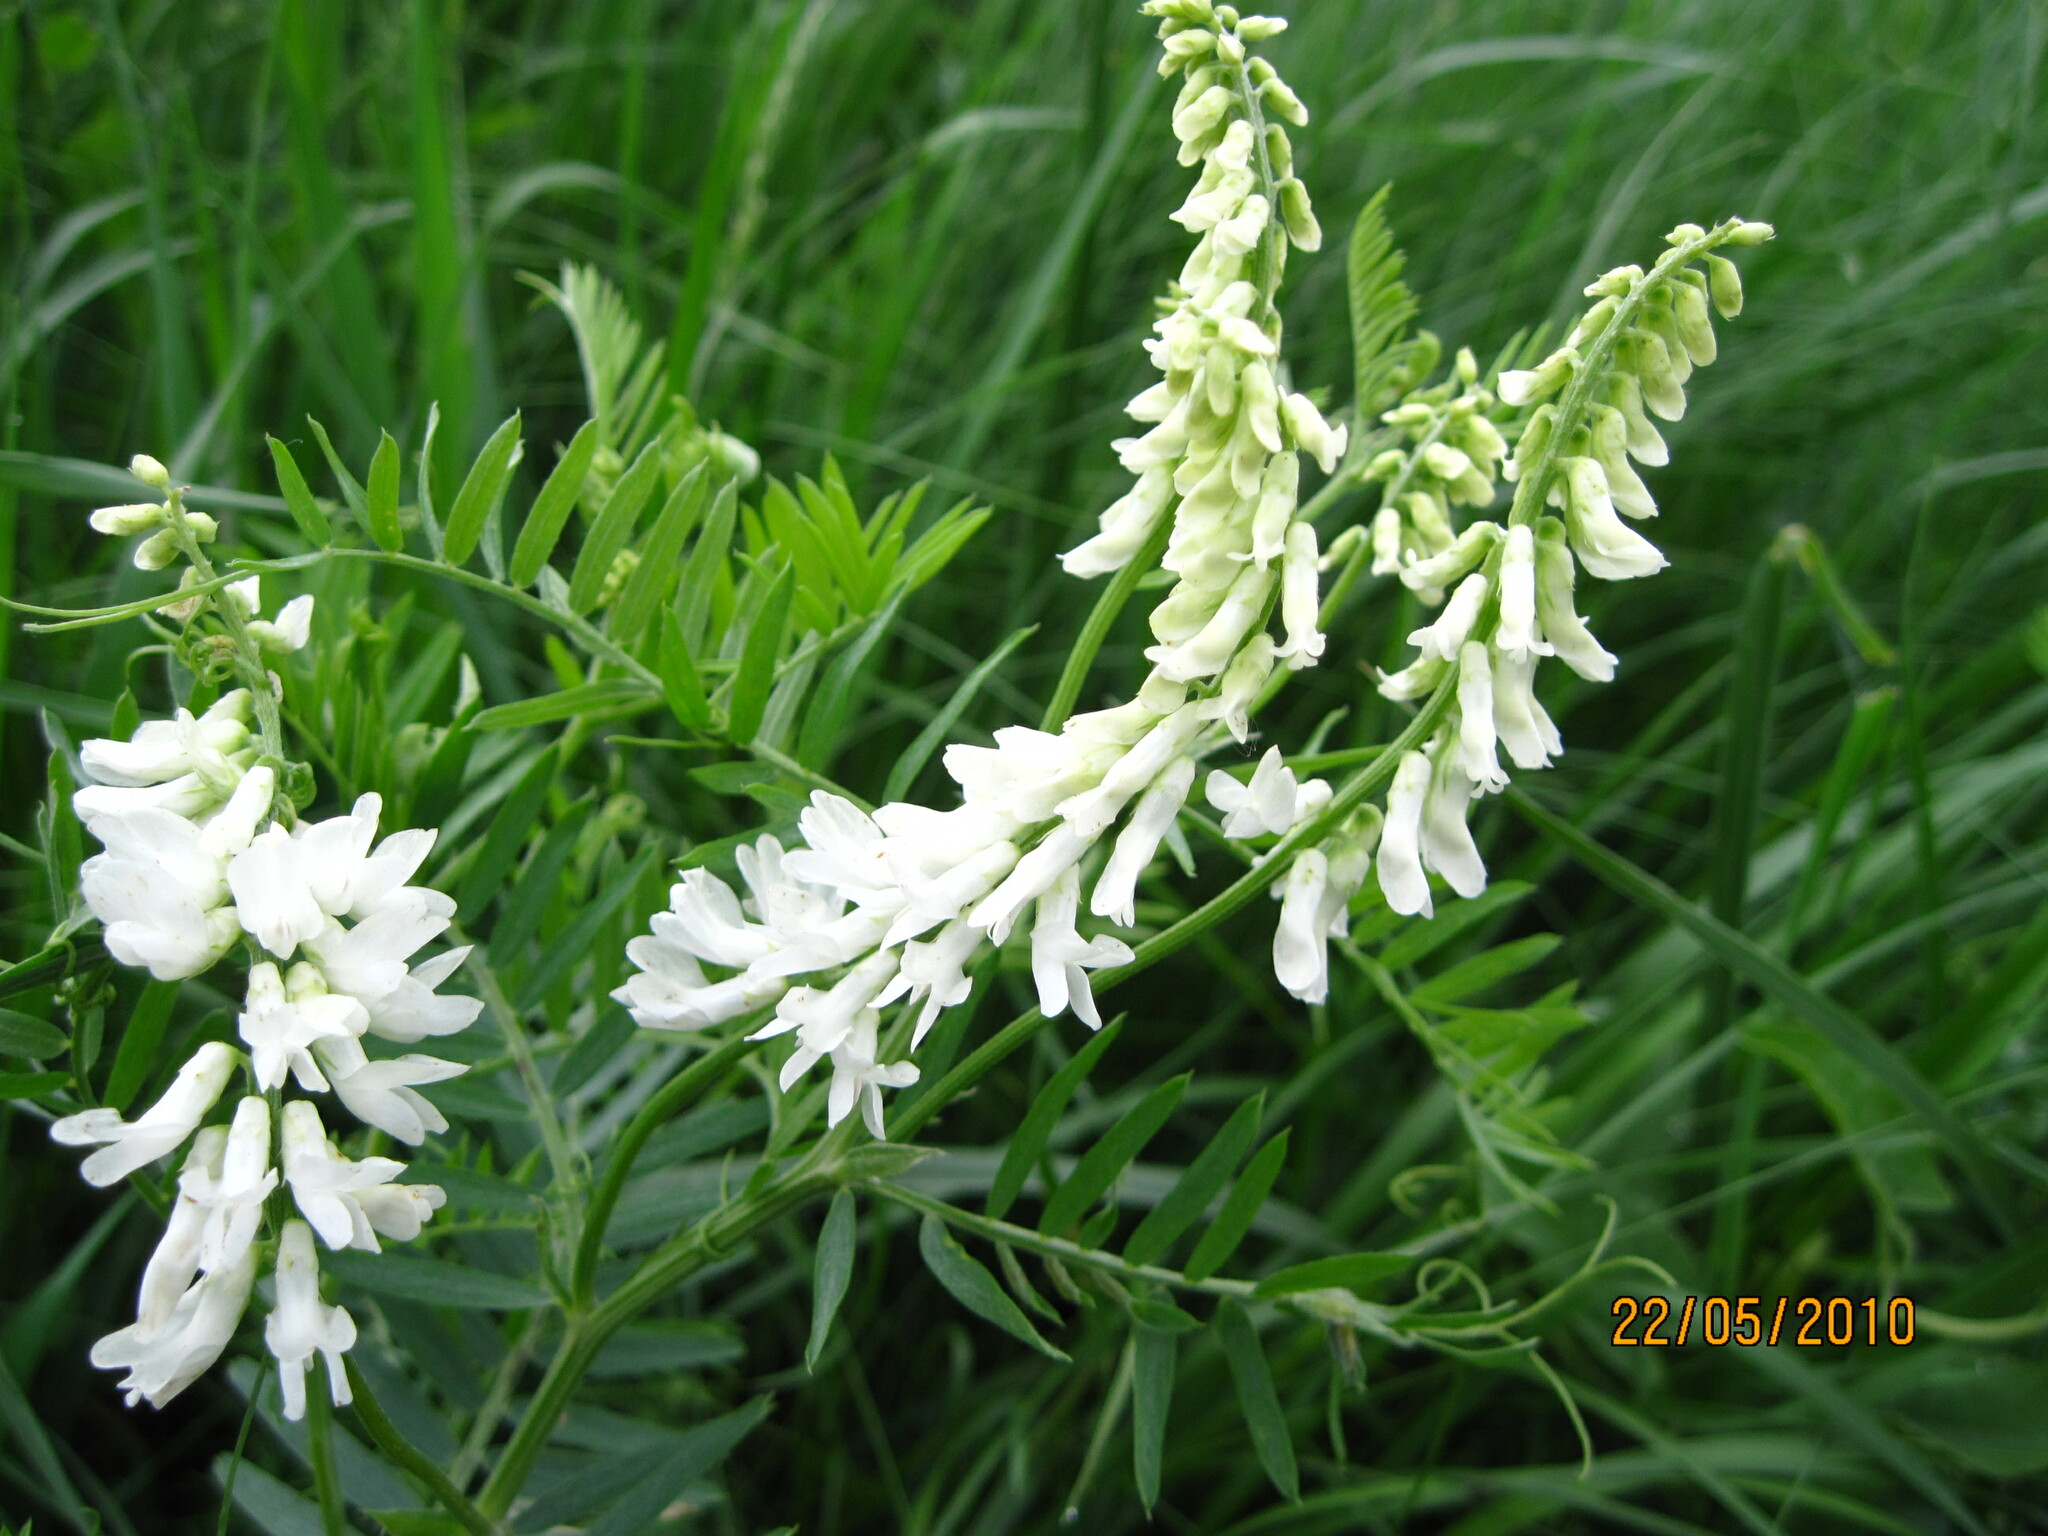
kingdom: Plantae
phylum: Tracheophyta
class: Magnoliopsida
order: Fabales
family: Fabaceae
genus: Vicia
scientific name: Vicia tenuifolia
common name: Fine-leaved vetch
